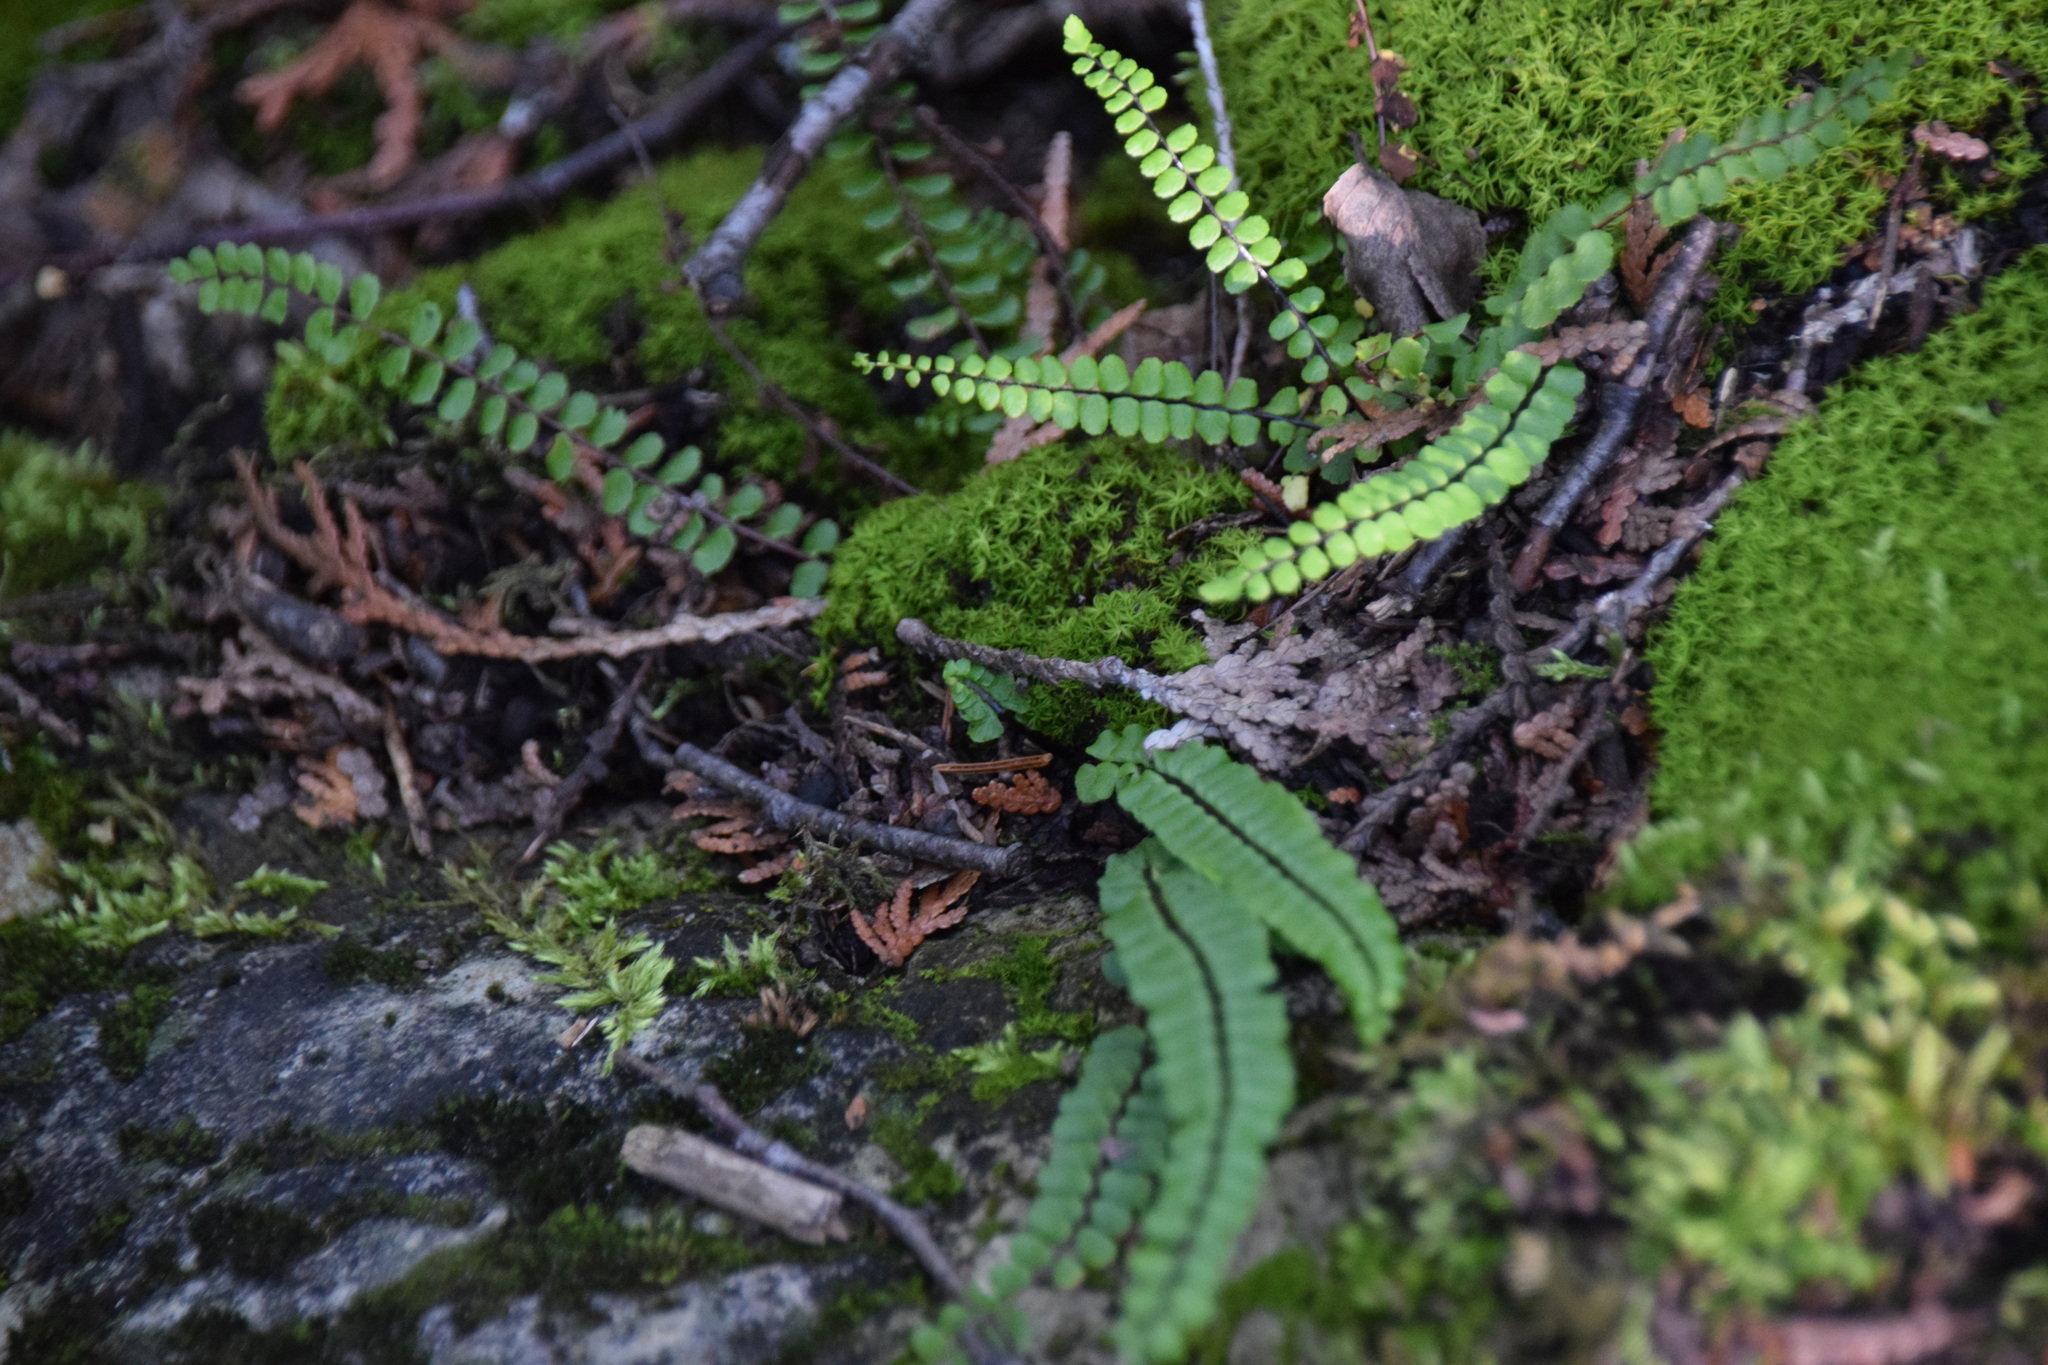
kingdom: Plantae
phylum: Tracheophyta
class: Polypodiopsida
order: Polypodiales
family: Aspleniaceae
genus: Asplenium
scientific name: Asplenium trichomanes
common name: Maidenhair spleenwort
